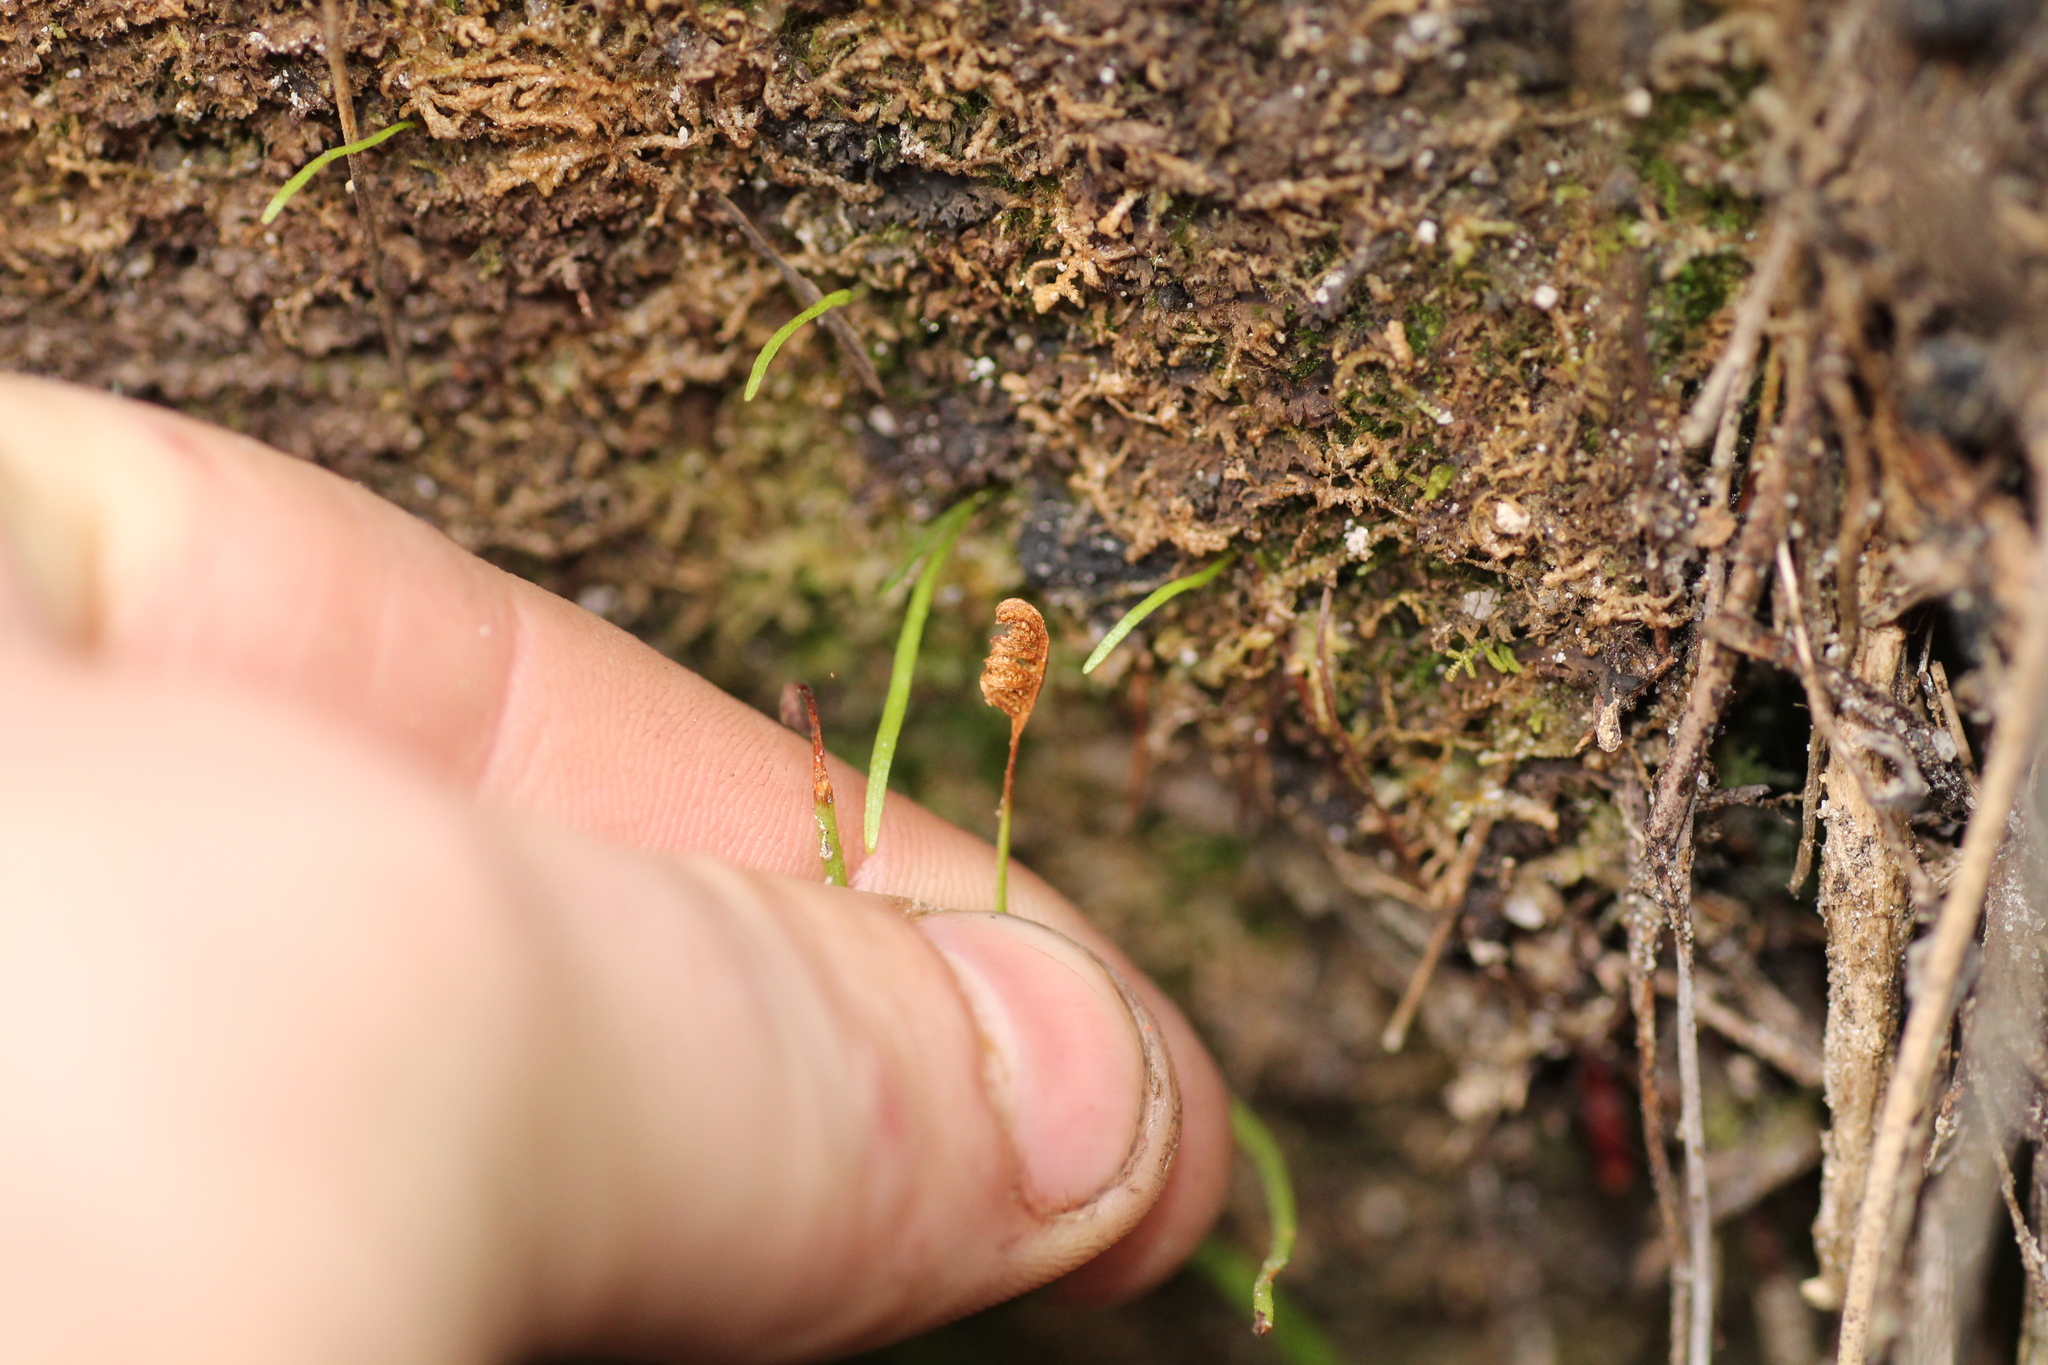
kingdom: Plantae
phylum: Tracheophyta
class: Polypodiopsida
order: Schizaeales
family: Schizaeaceae
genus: Microschizaea
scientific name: Microschizaea rupestris
